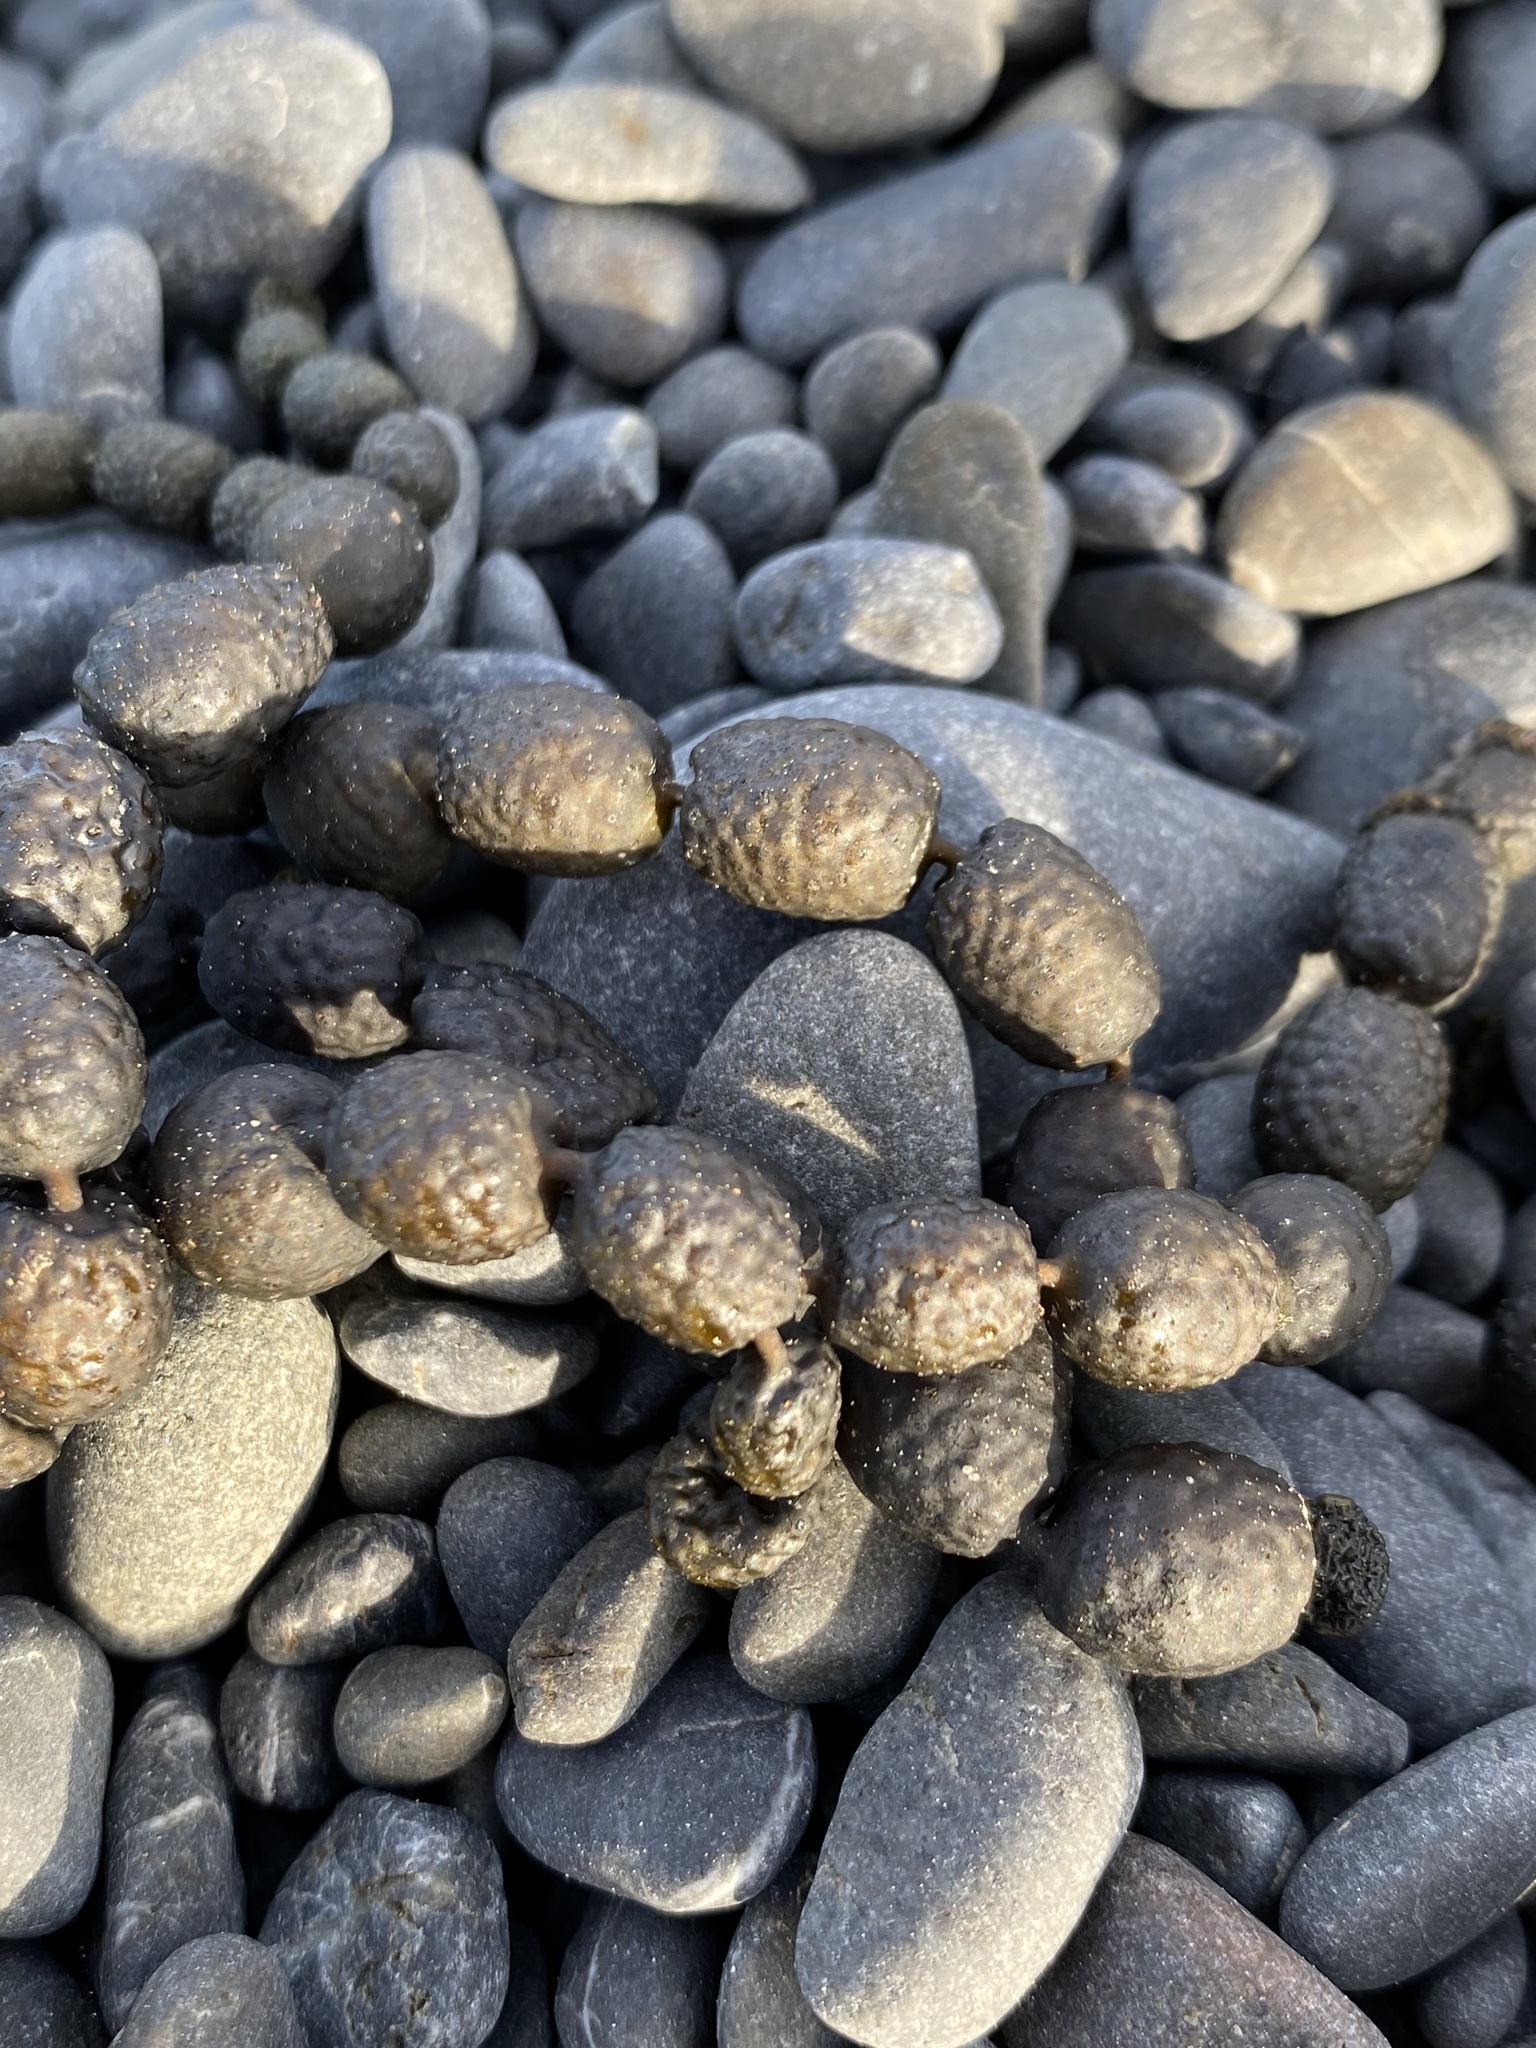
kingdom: Chromista
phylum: Ochrophyta
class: Phaeophyceae
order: Fucales
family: Hormosiraceae
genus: Hormosira
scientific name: Hormosira banksii
